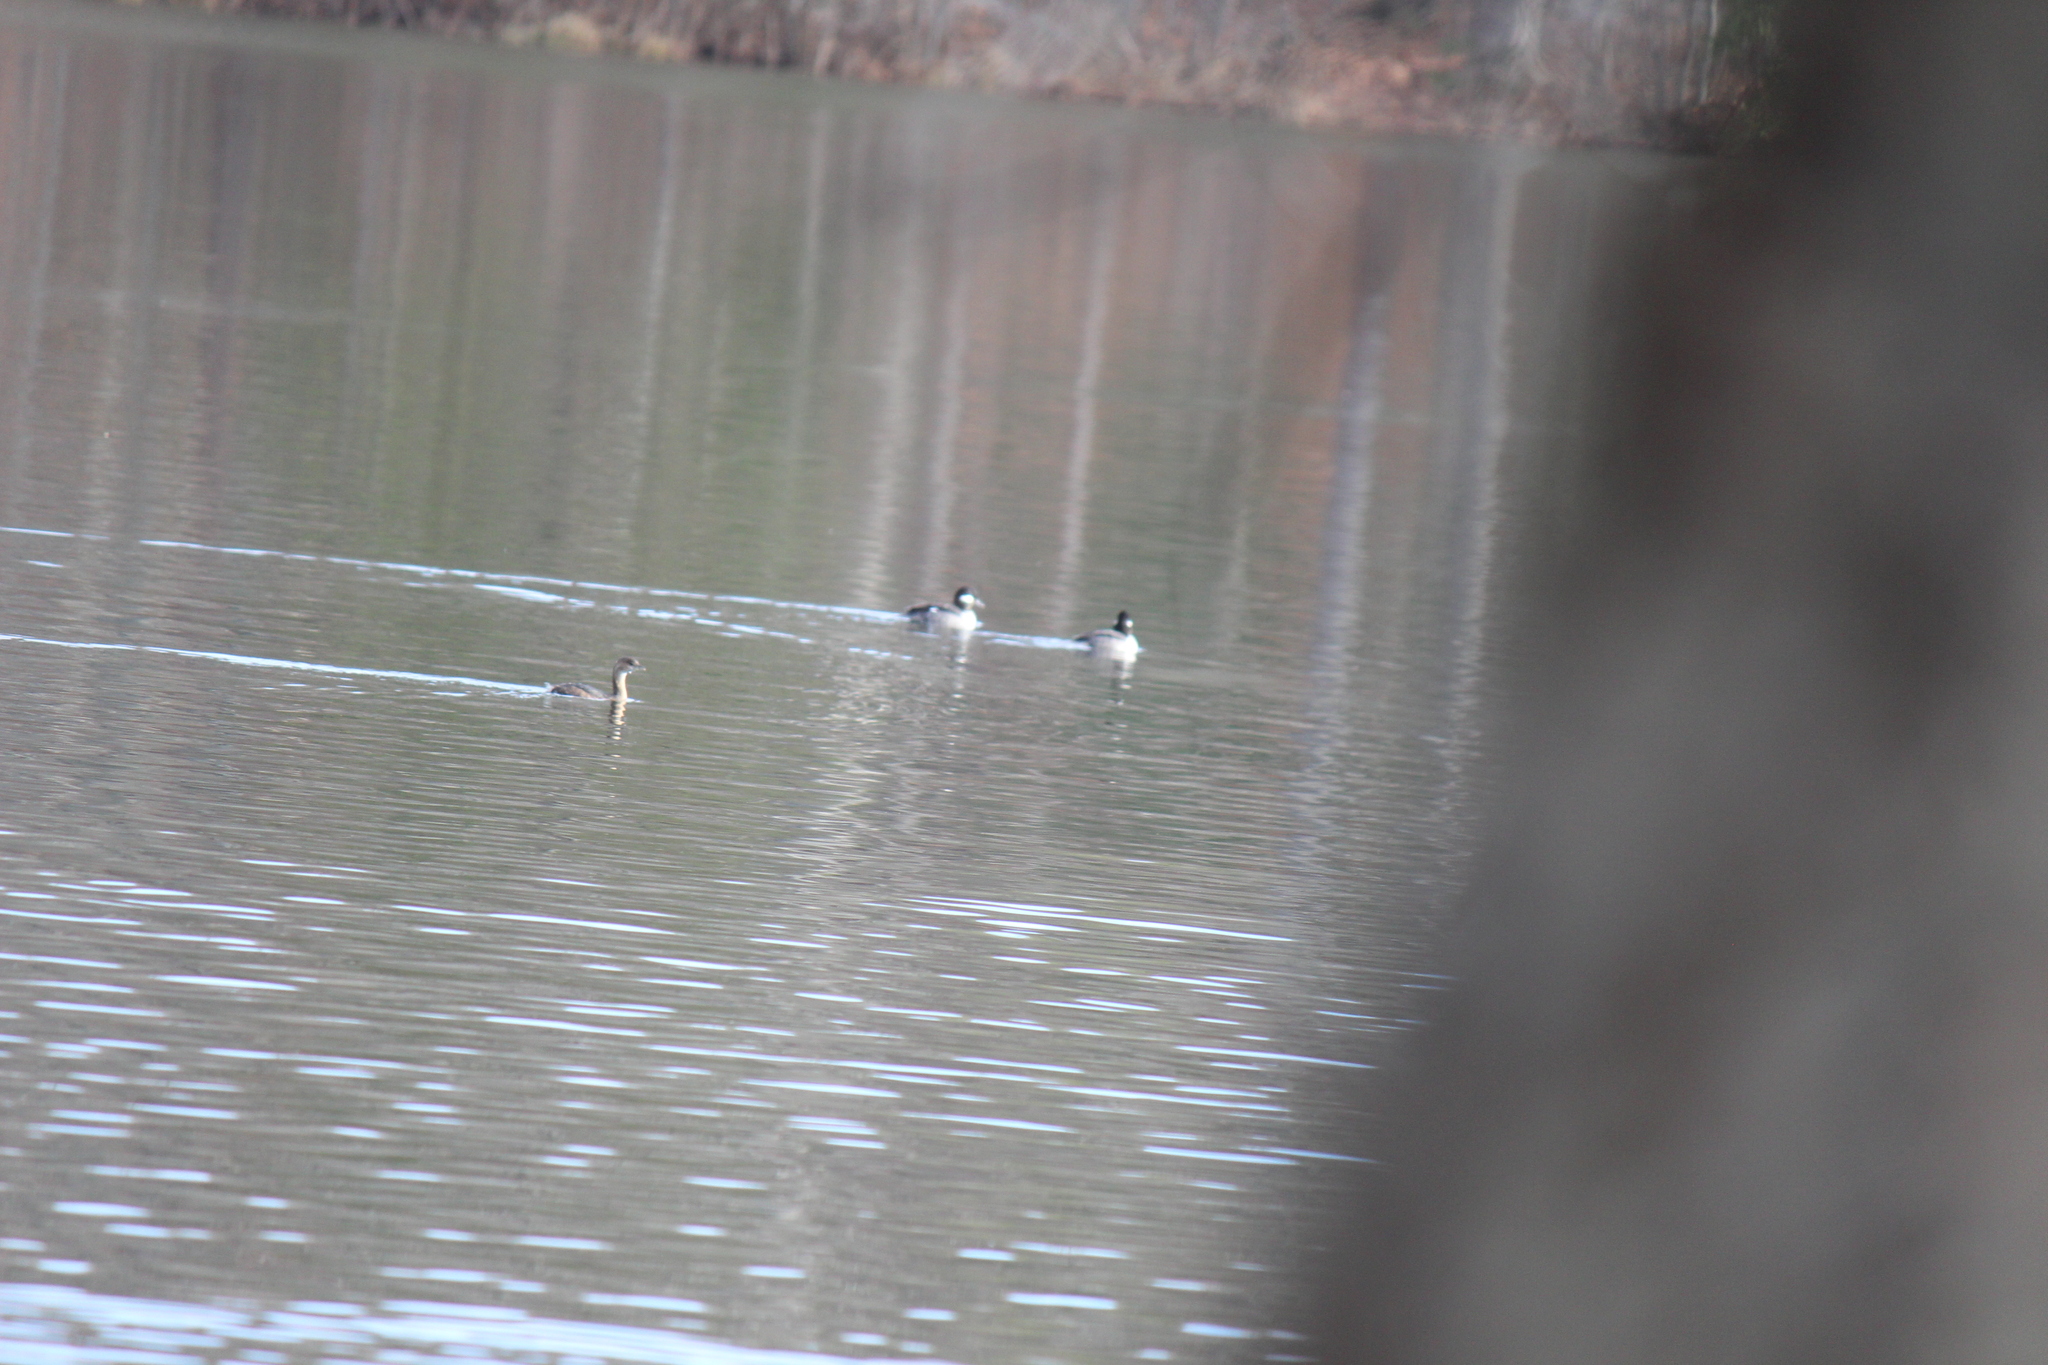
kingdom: Animalia
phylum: Chordata
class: Aves
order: Podicipediformes
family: Podicipedidae
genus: Podilymbus
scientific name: Podilymbus podiceps
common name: Pied-billed grebe
